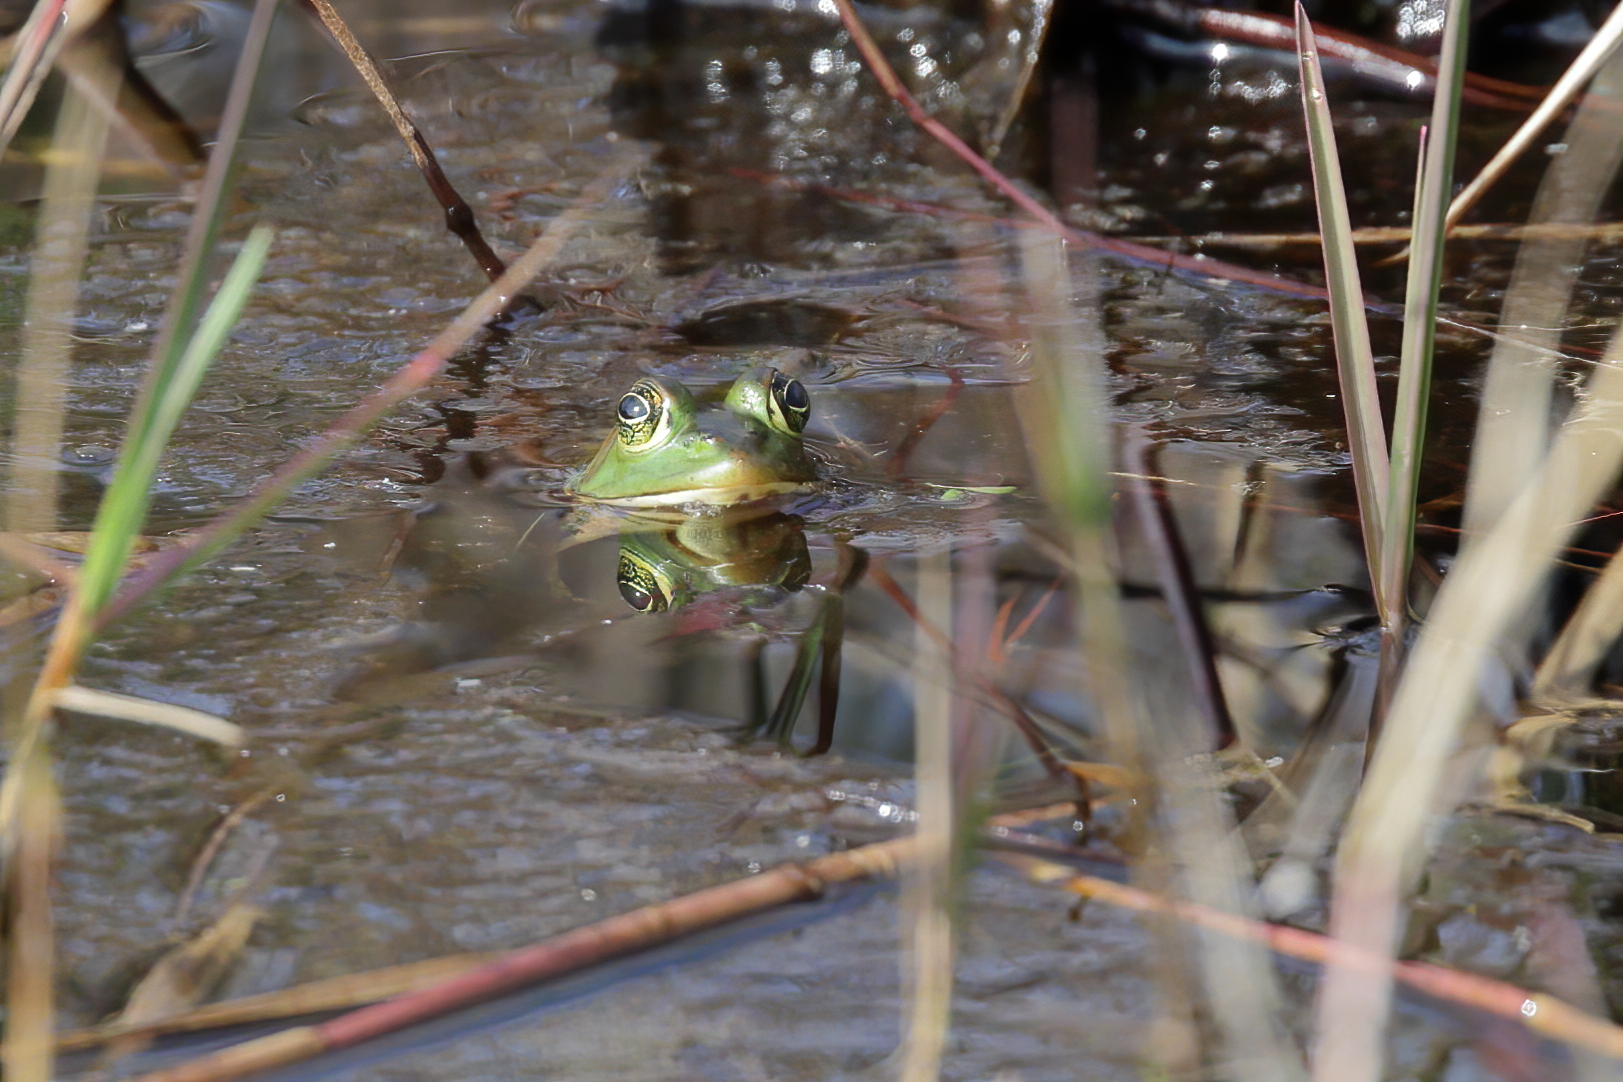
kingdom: Animalia
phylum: Chordata
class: Amphibia
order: Anura
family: Ranidae
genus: Lithobates
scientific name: Lithobates grylio
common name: Pig frog
